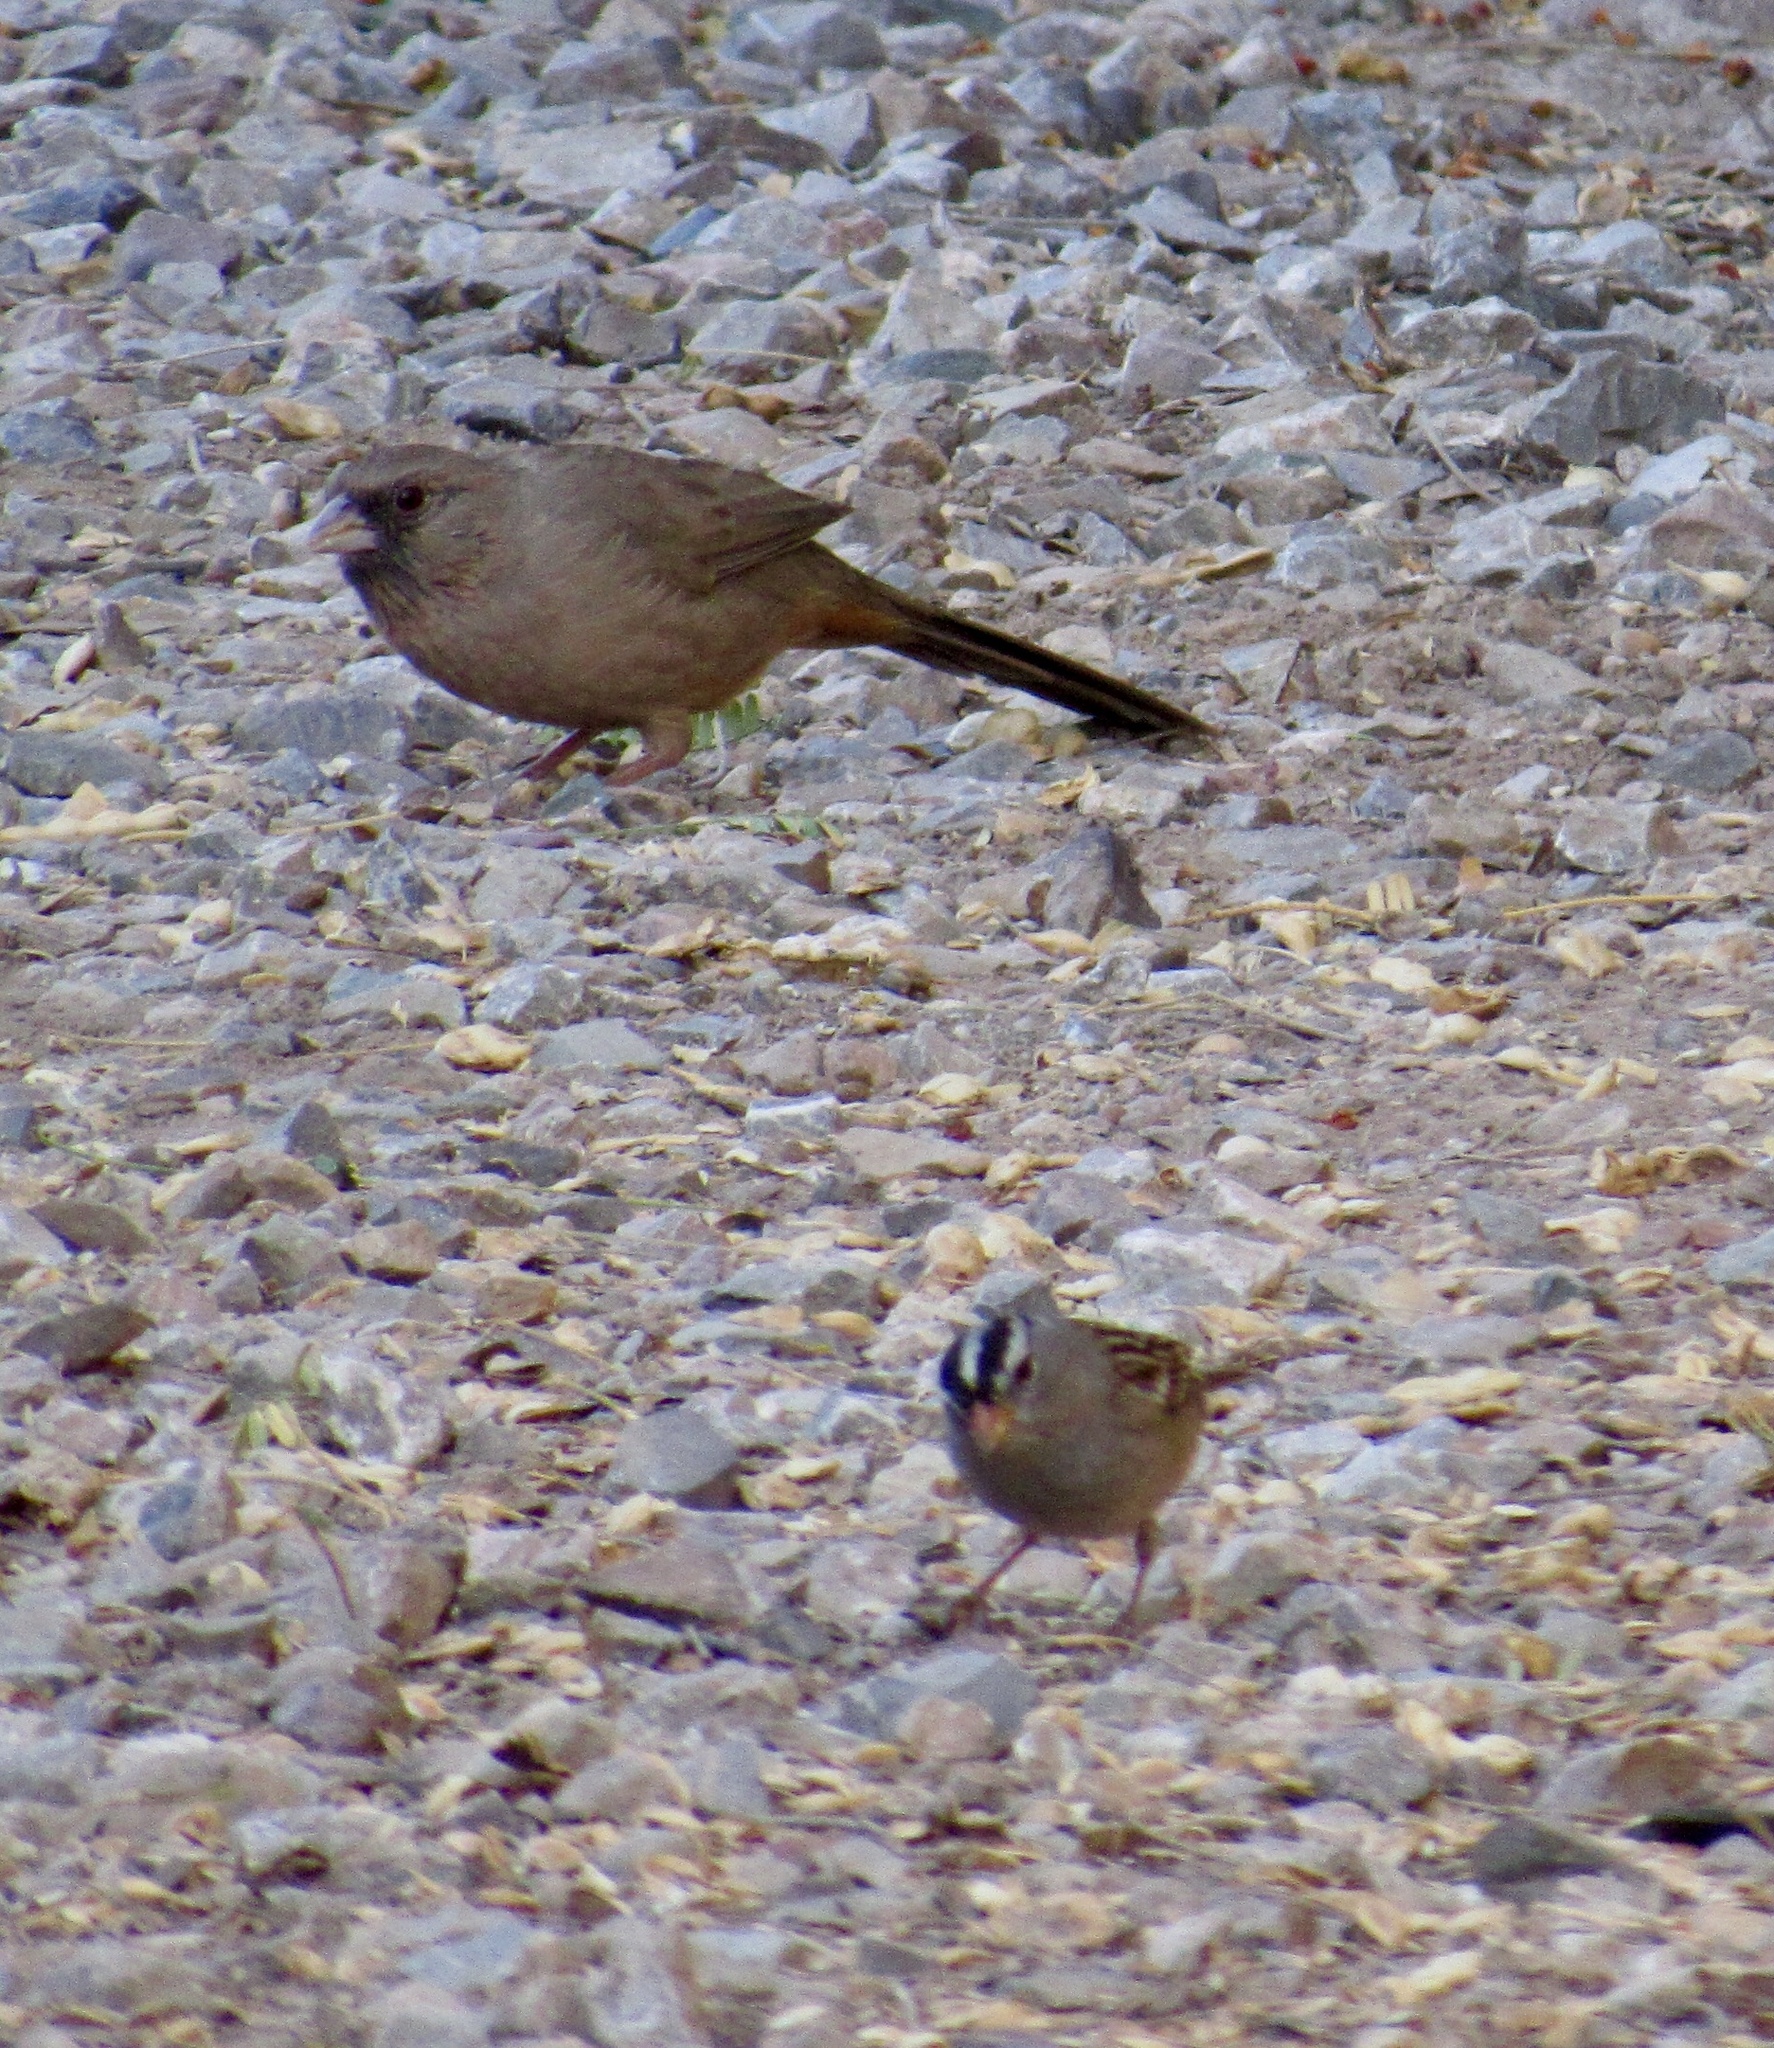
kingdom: Animalia
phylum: Chordata
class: Aves
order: Passeriformes
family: Passerellidae
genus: Zonotrichia
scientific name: Zonotrichia leucophrys
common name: White-crowned sparrow
